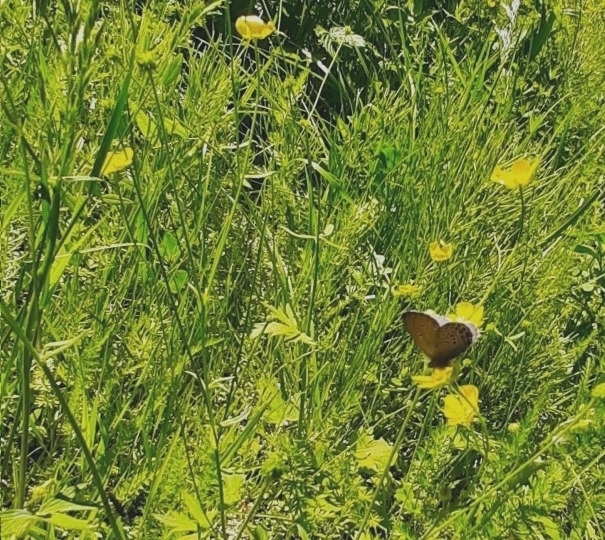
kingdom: Animalia
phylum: Arthropoda
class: Insecta
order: Lepidoptera
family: Lycaenidae
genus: Vacciniina
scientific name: Vacciniina optilete
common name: Cranberry blue
